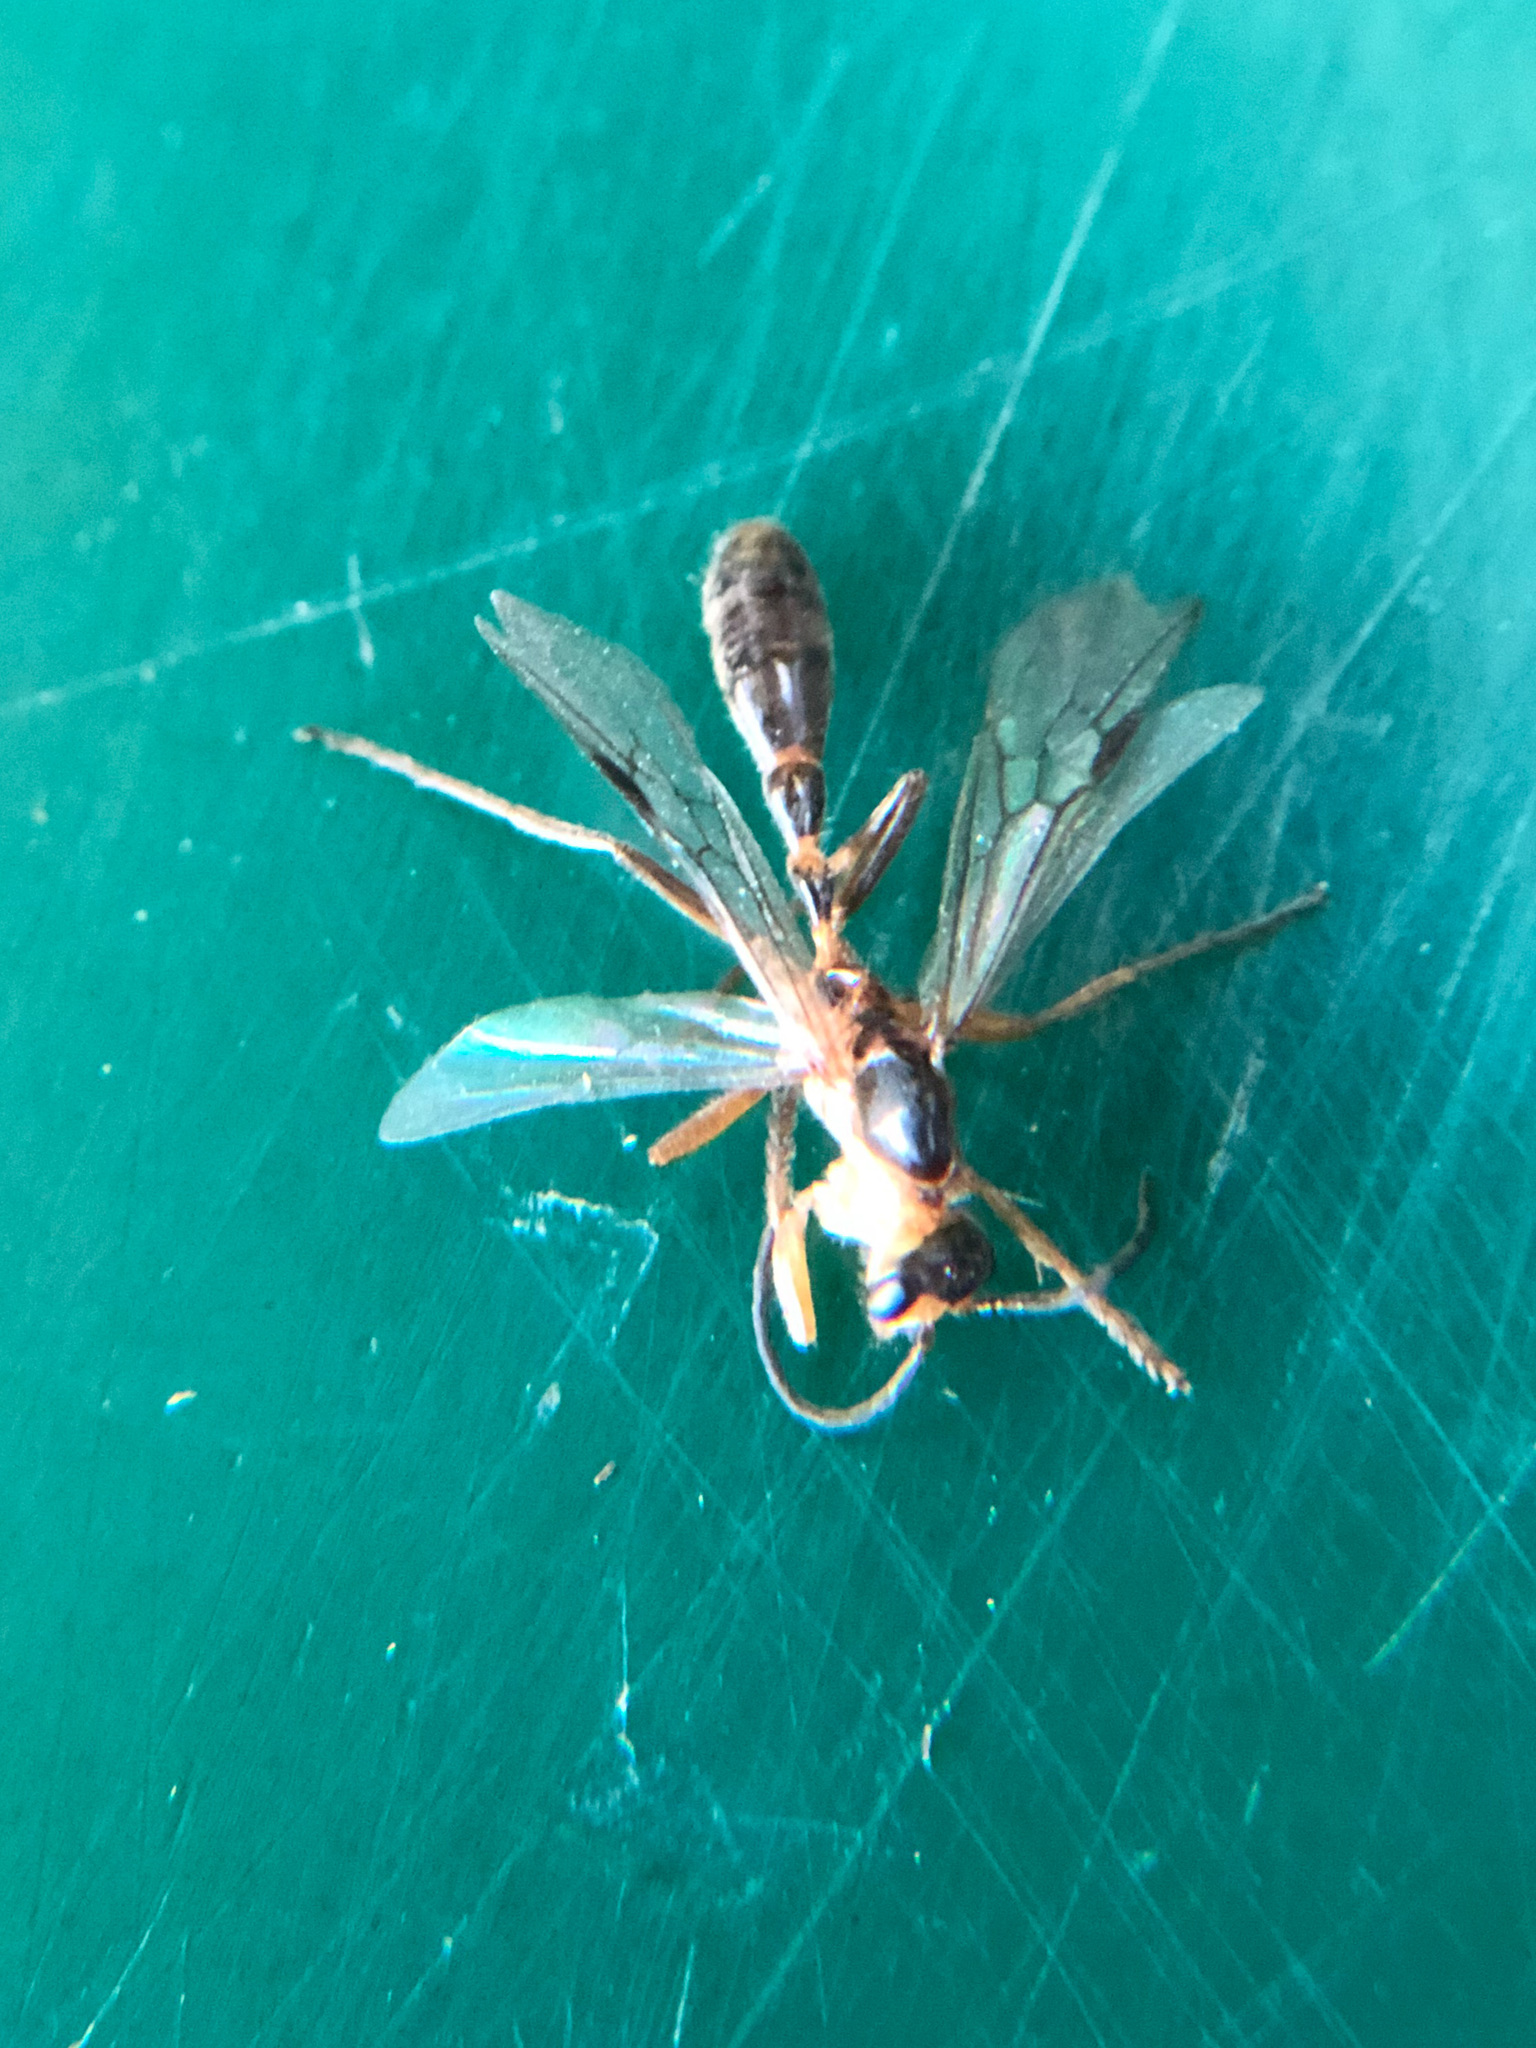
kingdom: Animalia
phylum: Arthropoda
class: Insecta
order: Hymenoptera
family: Formicidae
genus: Pseudomyrmex
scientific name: Pseudomyrmex gracilis
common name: Graceful twig ant
